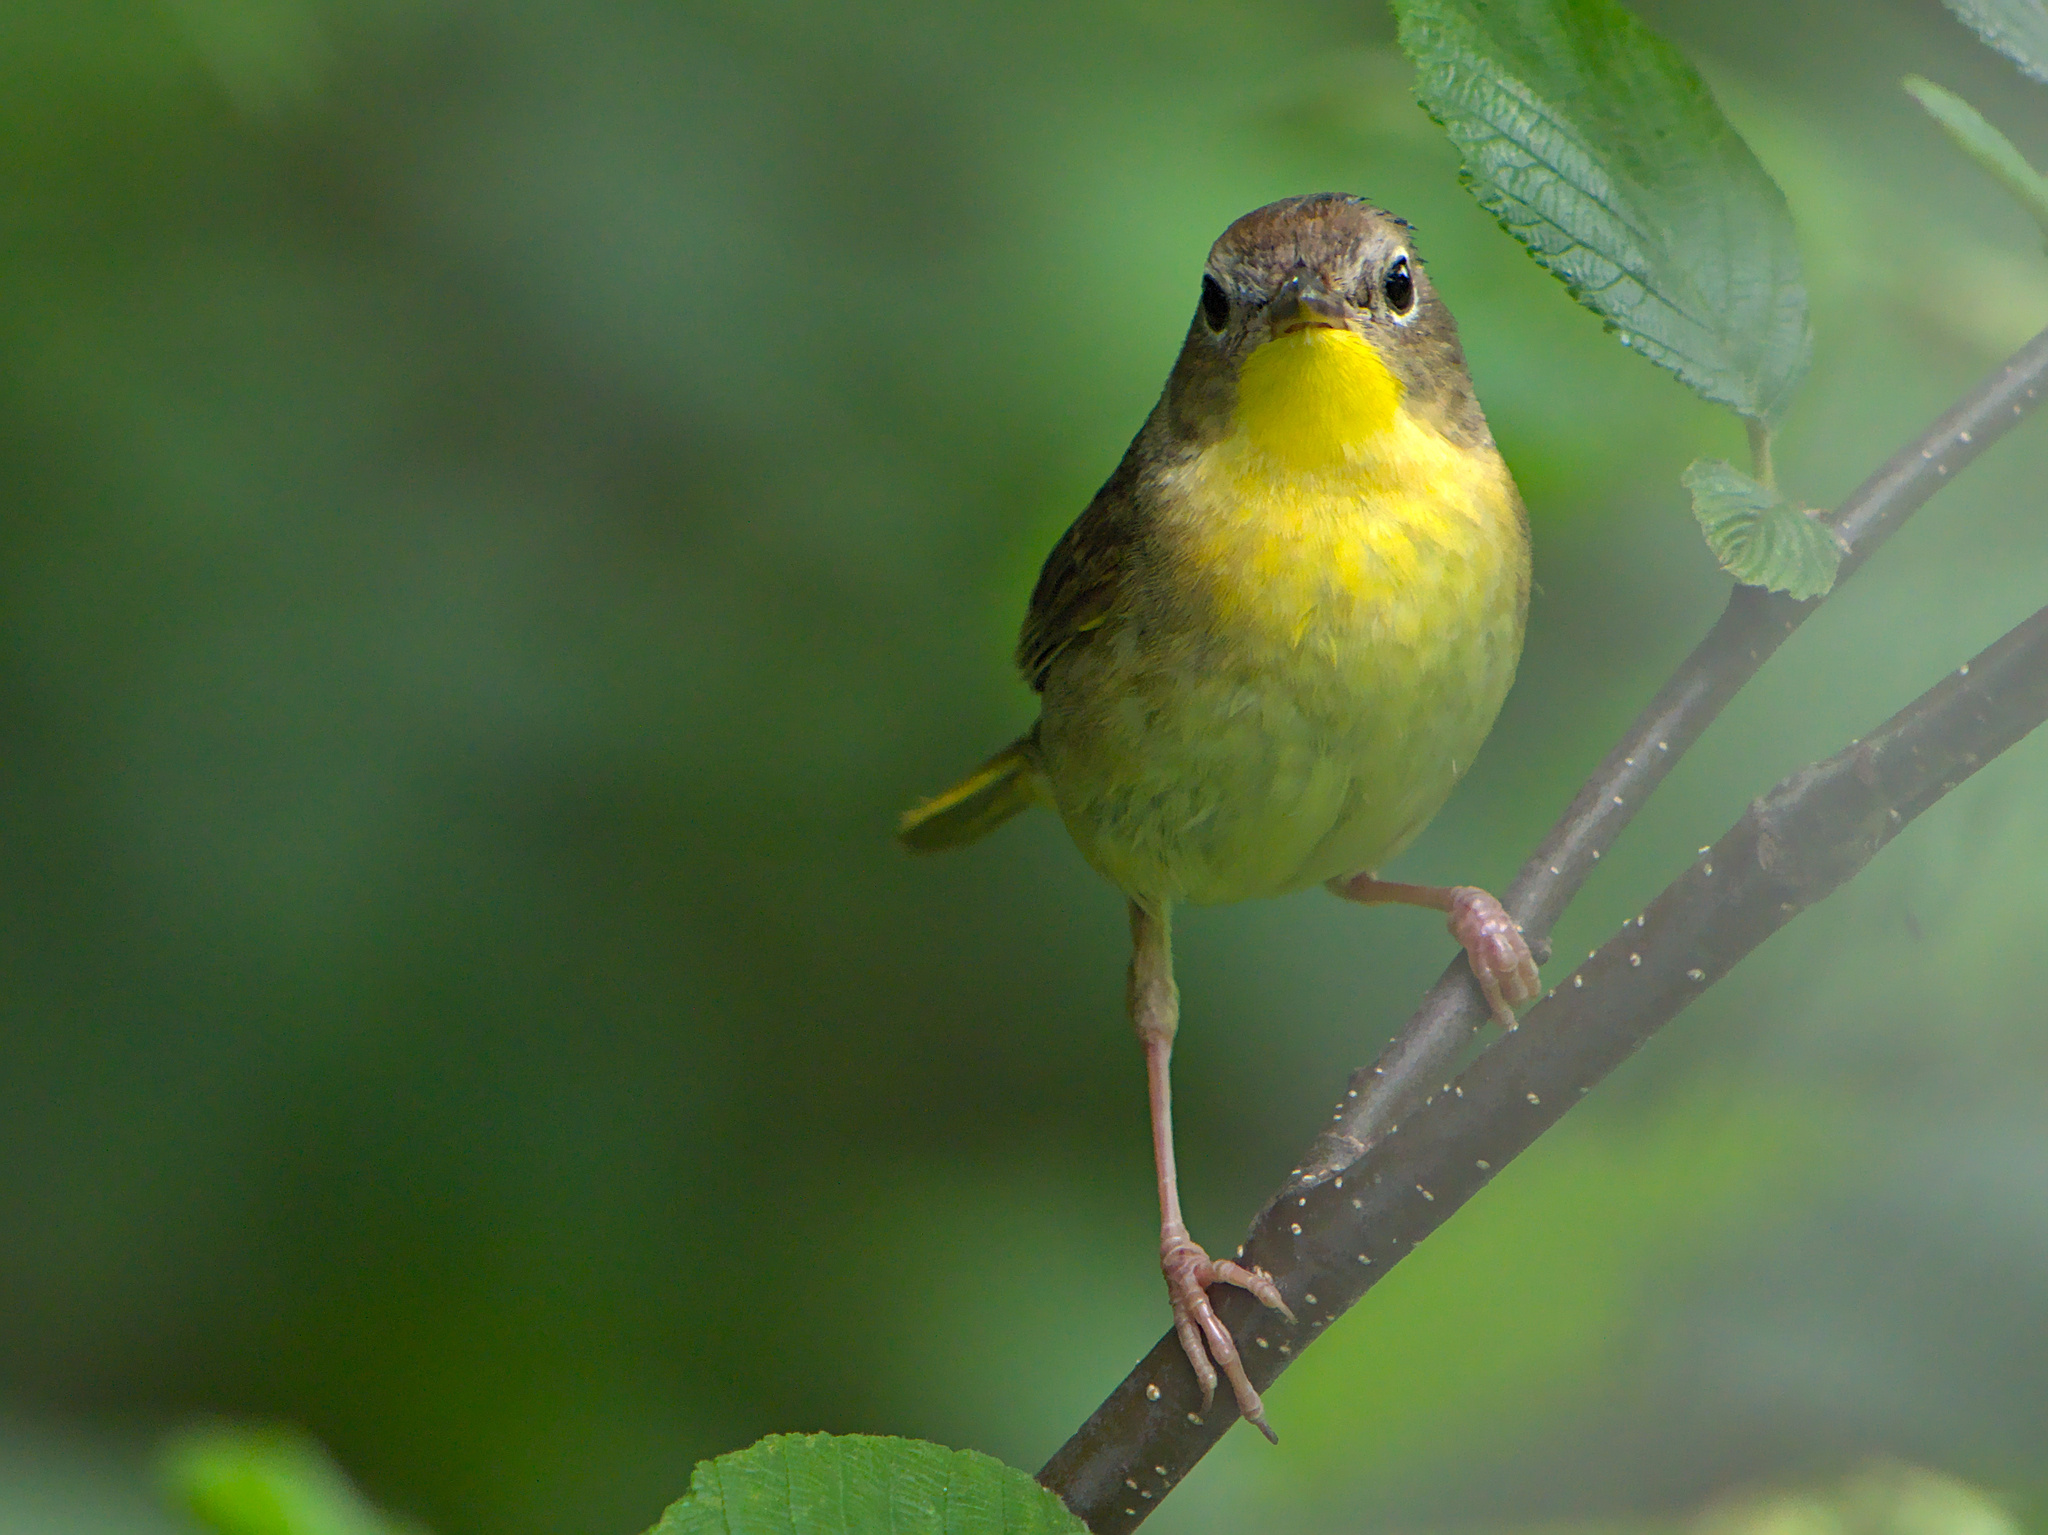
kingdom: Animalia
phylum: Chordata
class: Aves
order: Passeriformes
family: Parulidae
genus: Geothlypis
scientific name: Geothlypis trichas
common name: Common yellowthroat
